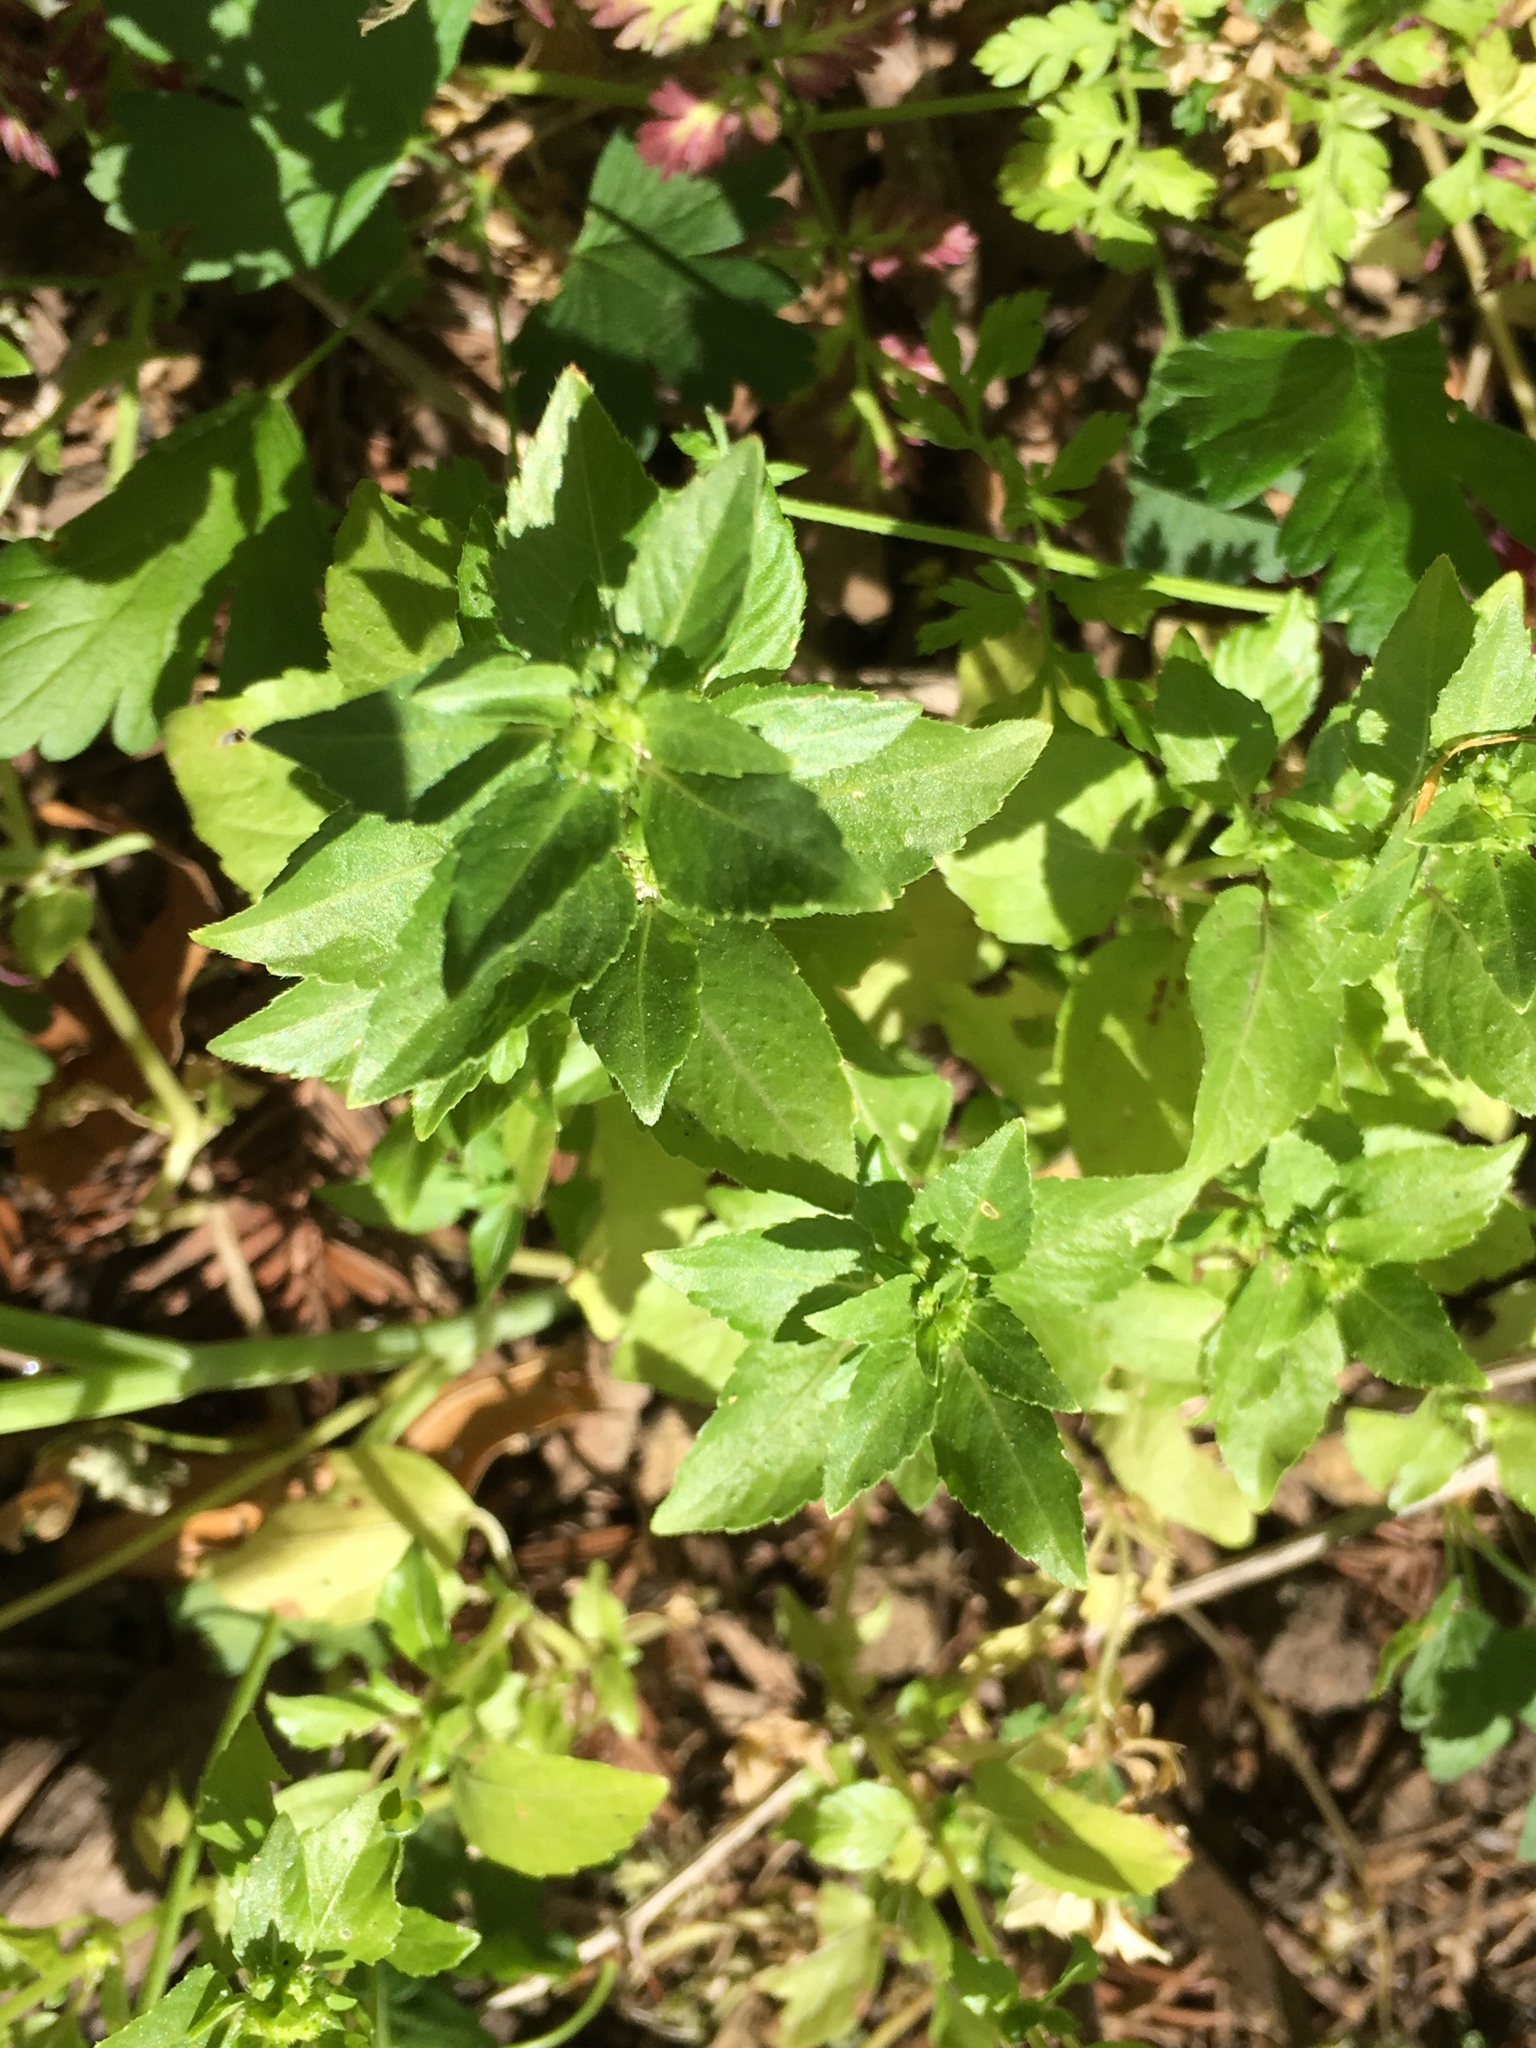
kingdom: Plantae
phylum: Tracheophyta
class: Magnoliopsida
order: Malpighiales
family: Euphorbiaceae
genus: Mercurialis
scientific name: Mercurialis annua
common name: Annual mercury
